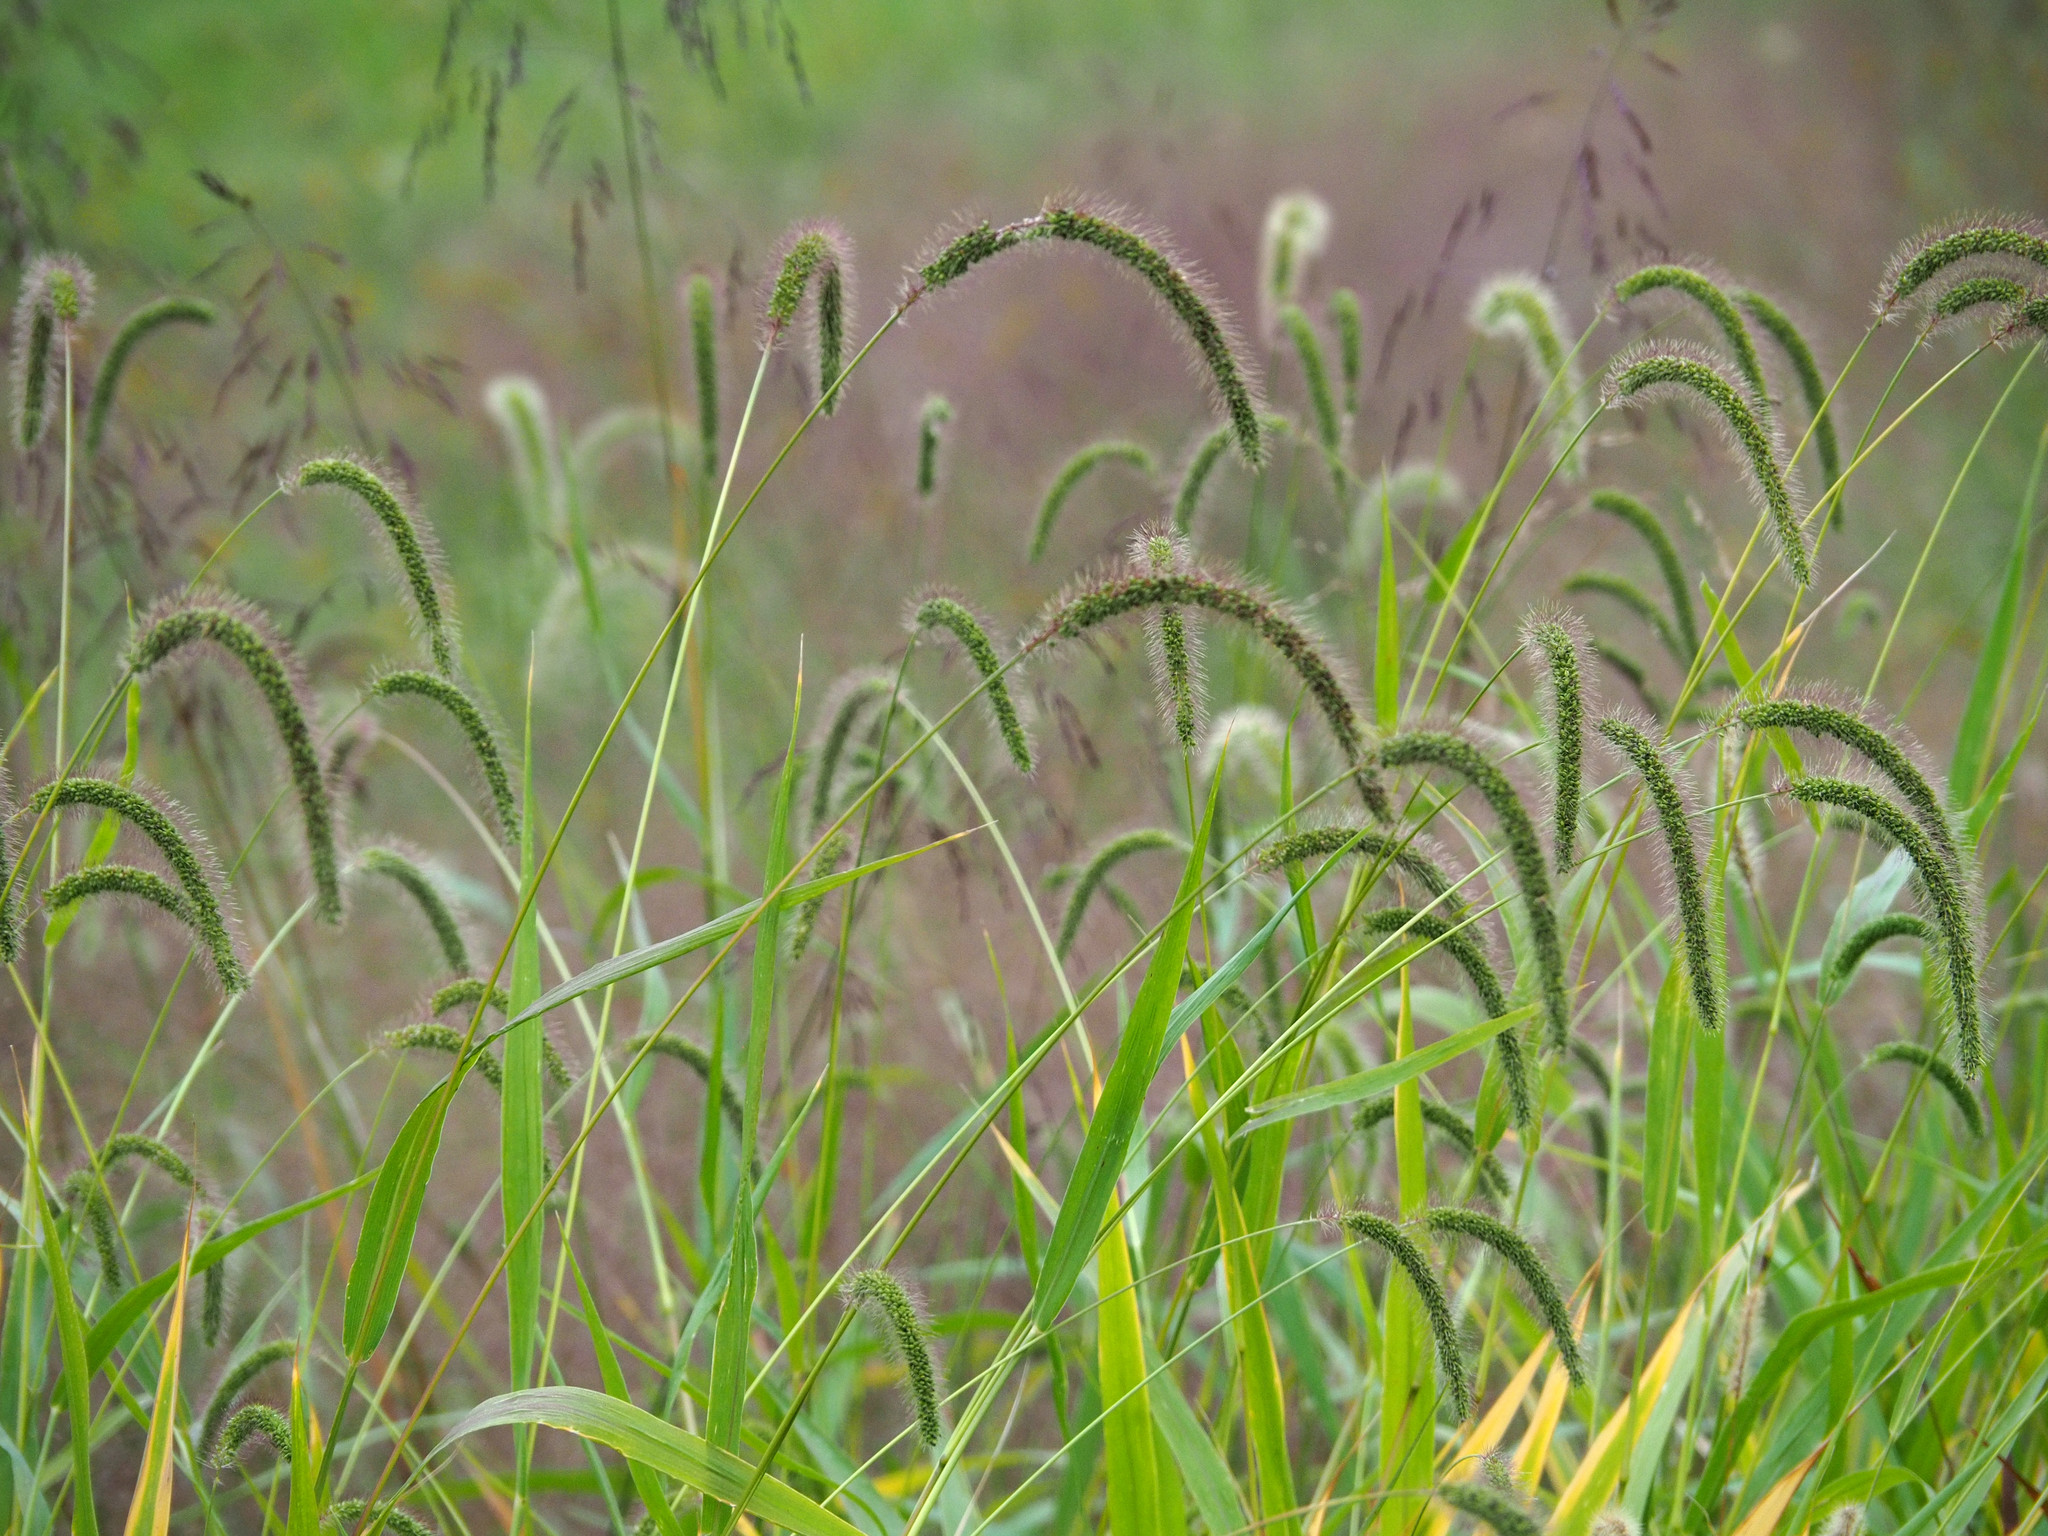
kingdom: Plantae
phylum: Tracheophyta
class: Liliopsida
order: Poales
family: Poaceae
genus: Setaria
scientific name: Setaria faberi
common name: Nodding bristle-grass
